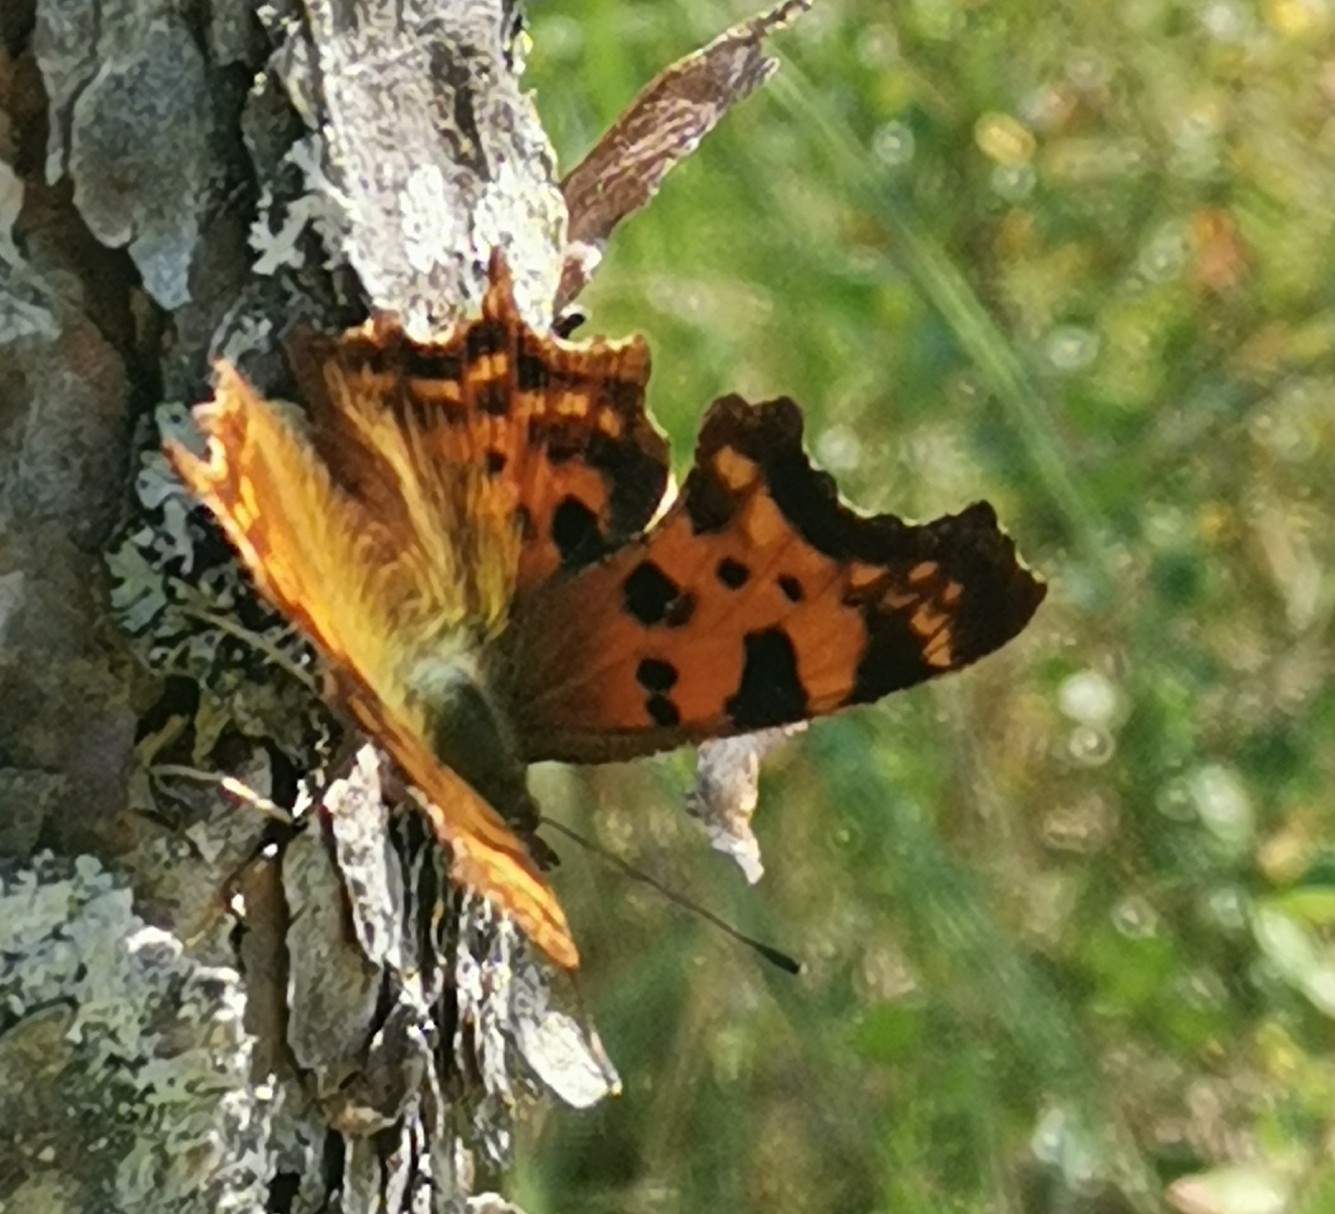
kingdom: Animalia
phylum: Arthropoda
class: Insecta
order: Lepidoptera
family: Nymphalidae
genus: Polygonia
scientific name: Polygonia c-album
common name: Comma
